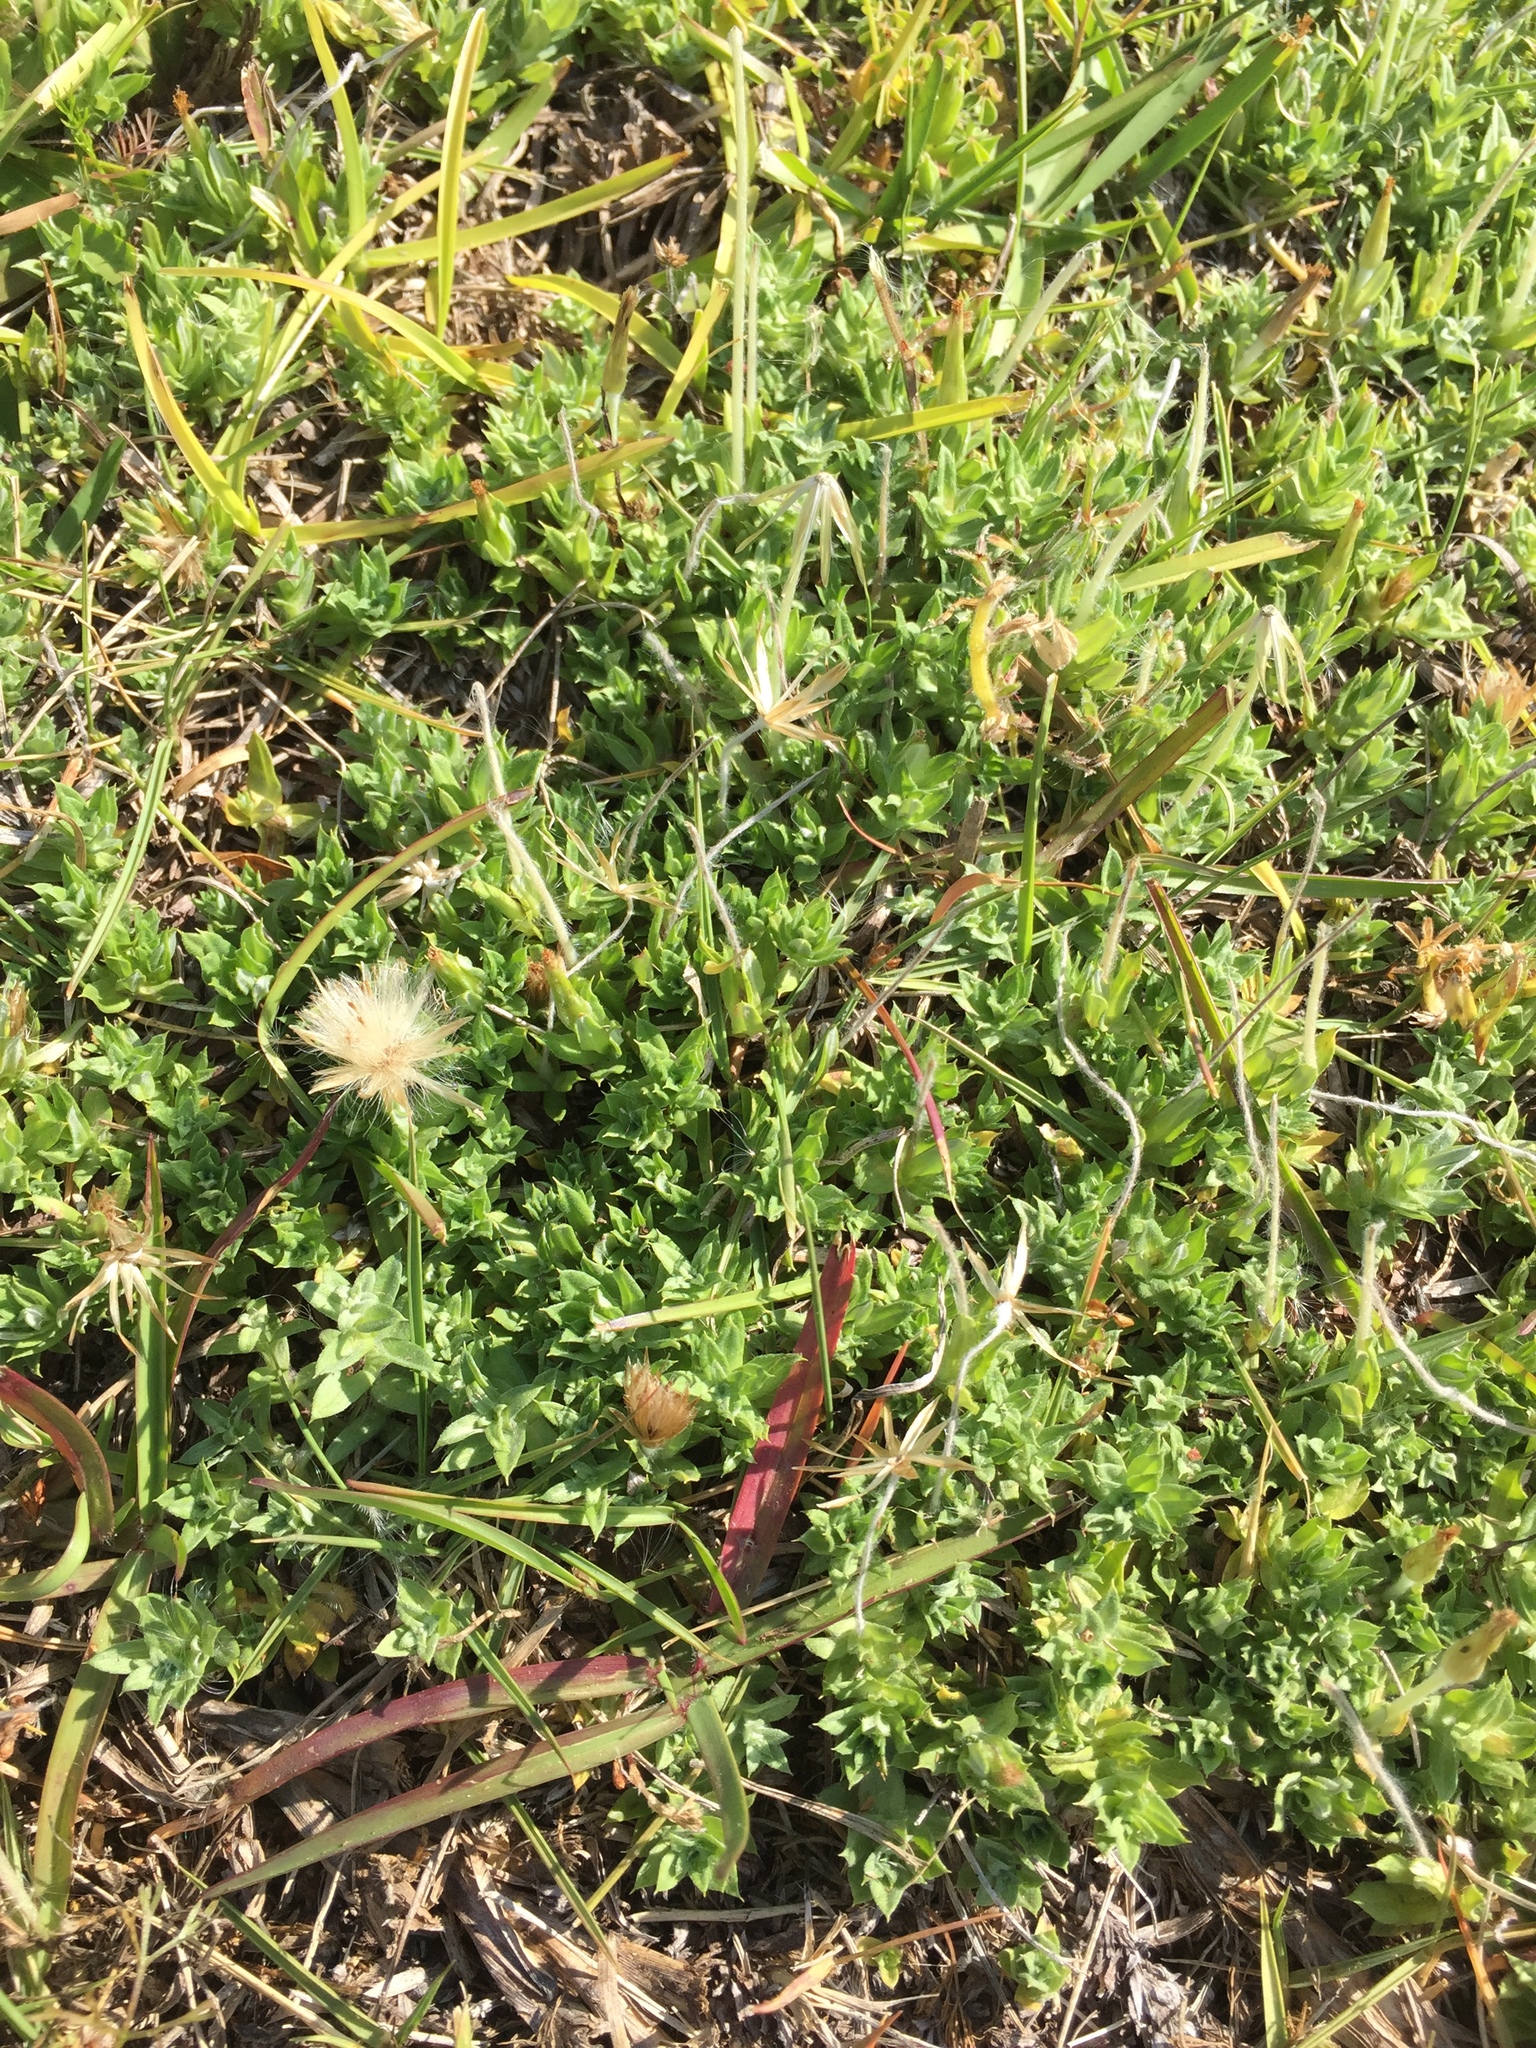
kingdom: Plantae
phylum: Tracheophyta
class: Magnoliopsida
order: Asterales
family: Asteraceae
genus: Chevreulia
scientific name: Chevreulia acuminata
